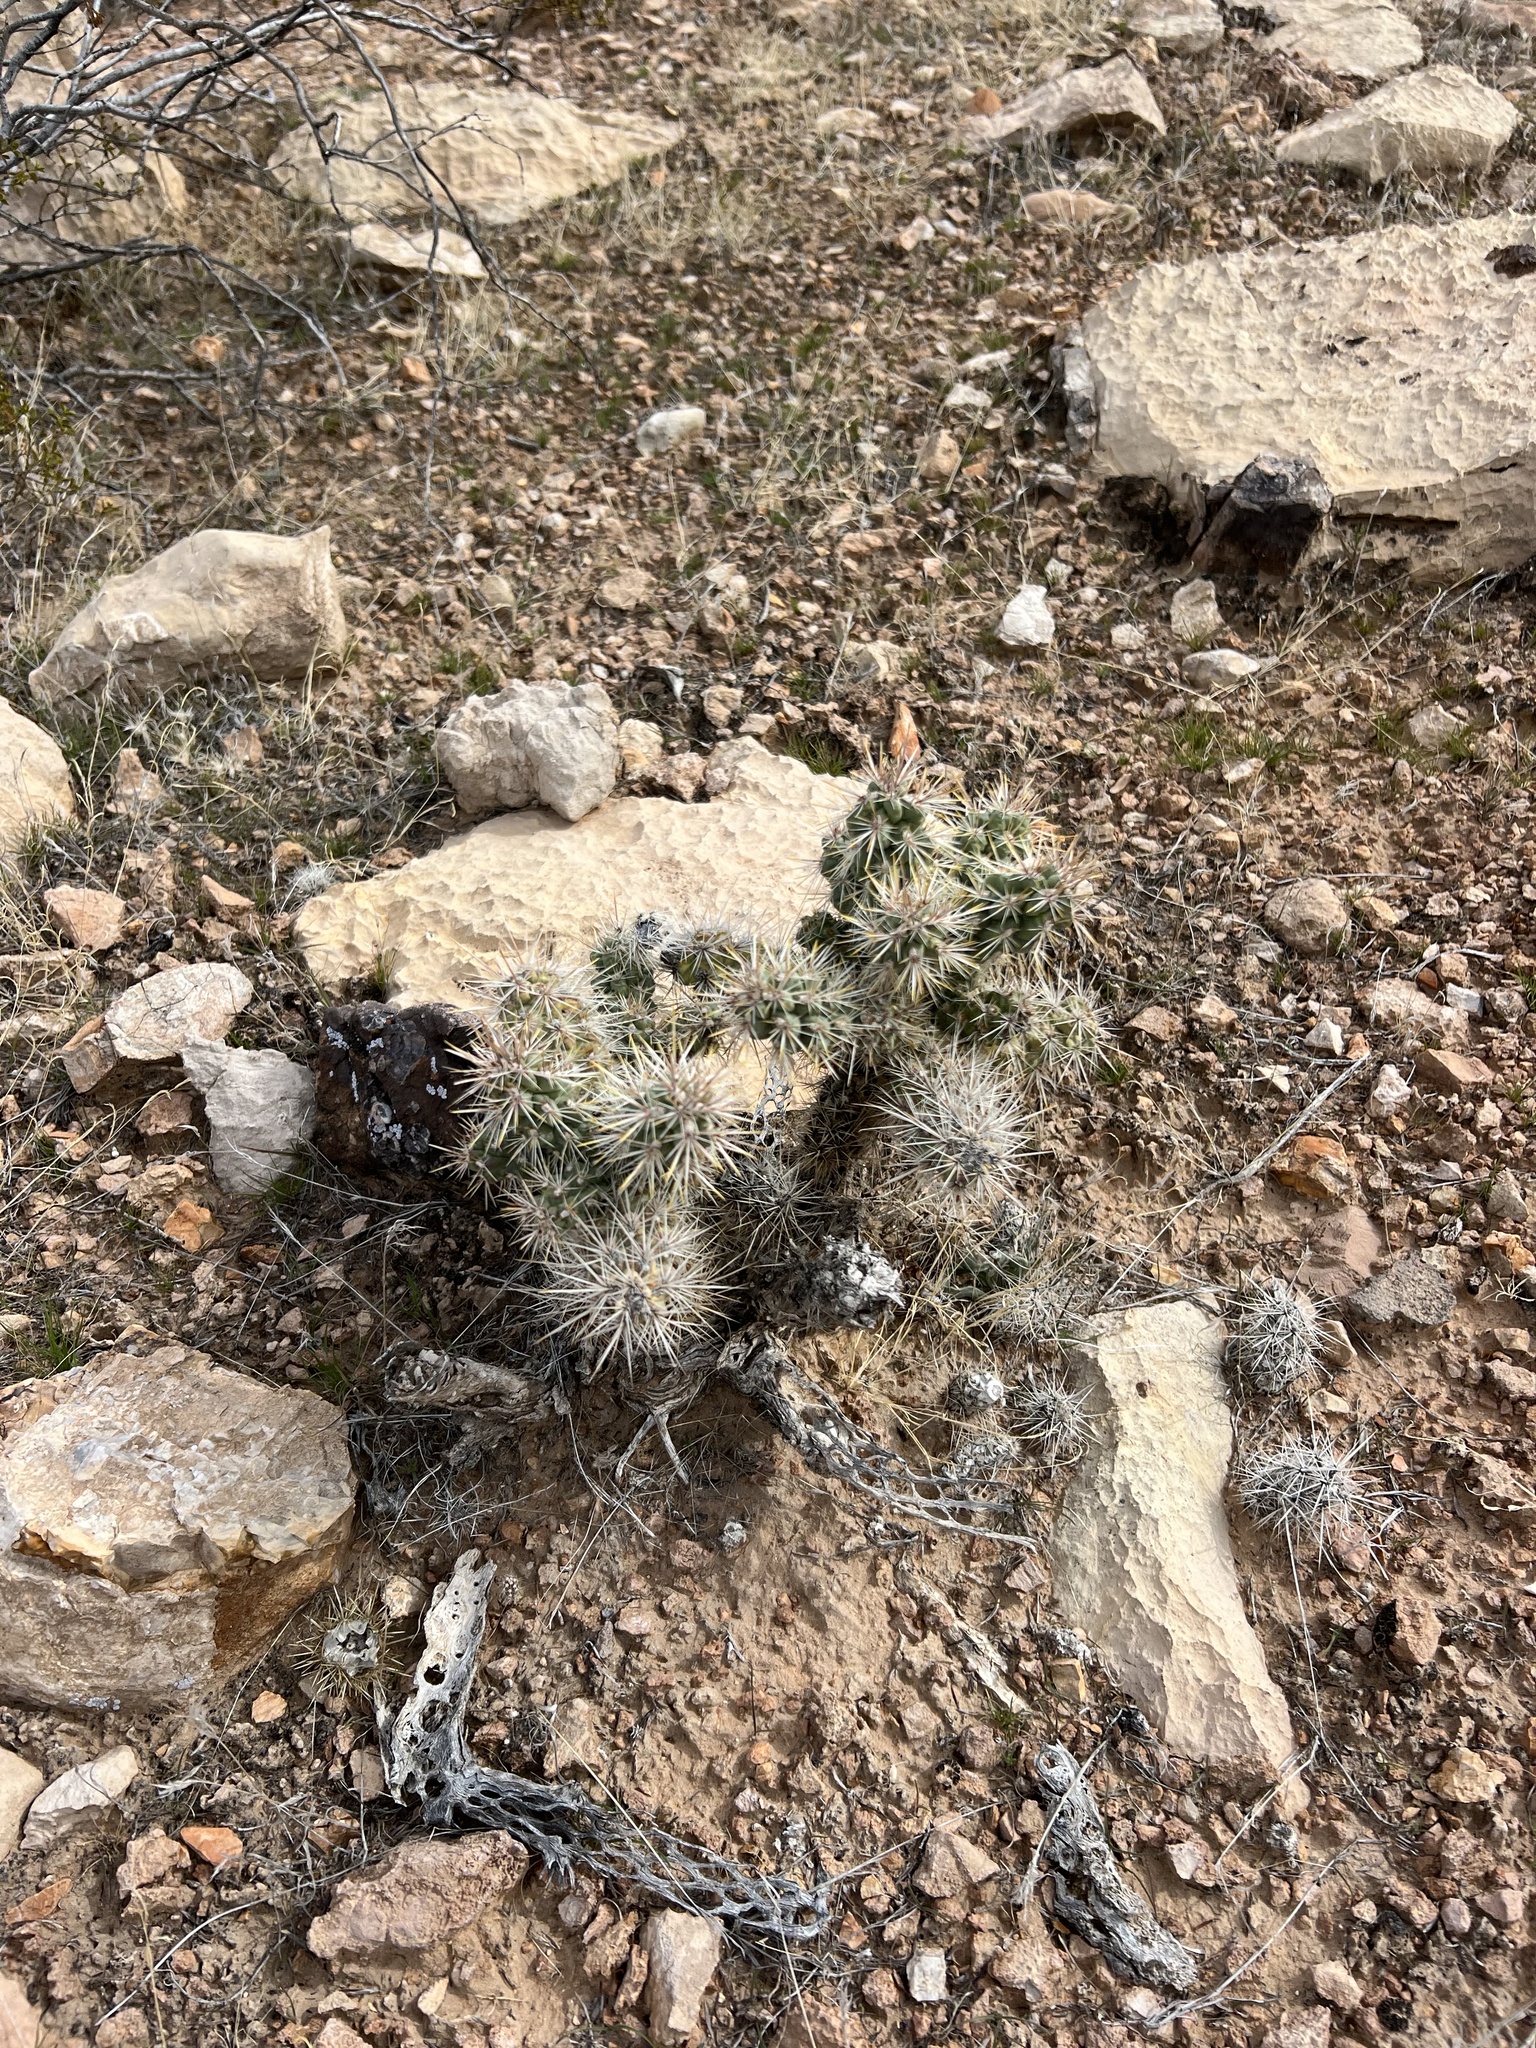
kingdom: Plantae
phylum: Tracheophyta
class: Magnoliopsida
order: Caryophyllales
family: Cactaceae
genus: Cylindropuntia
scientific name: Cylindropuntia echinocarpa
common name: Ground cholla
